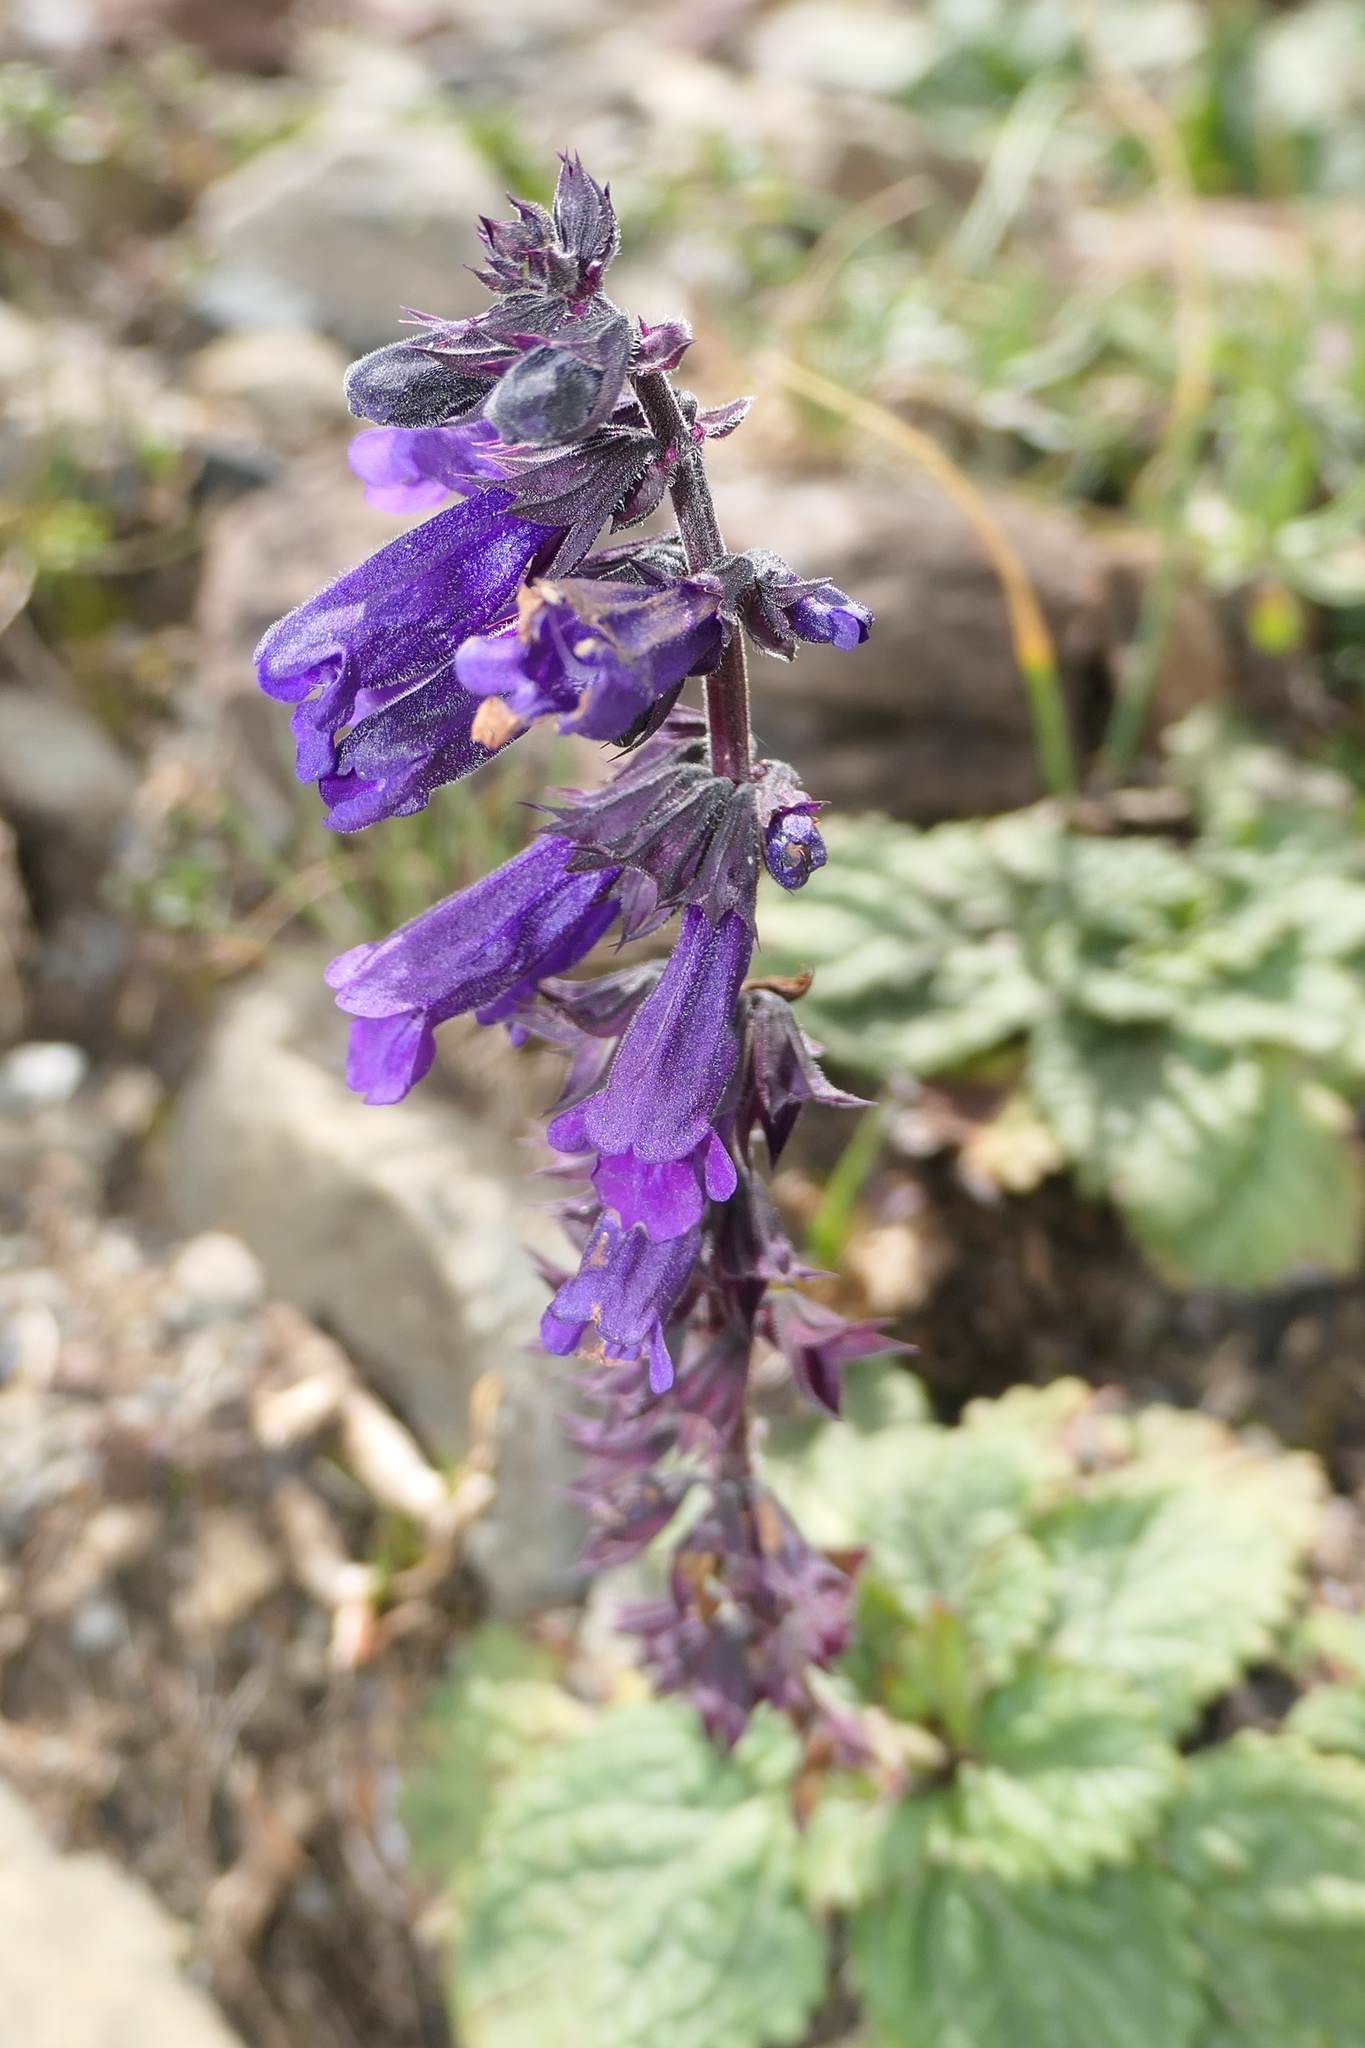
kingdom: Plantae
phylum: Tracheophyta
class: Magnoliopsida
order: Lamiales
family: Lamiaceae
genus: Horminum
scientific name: Horminum pyrenaicum
